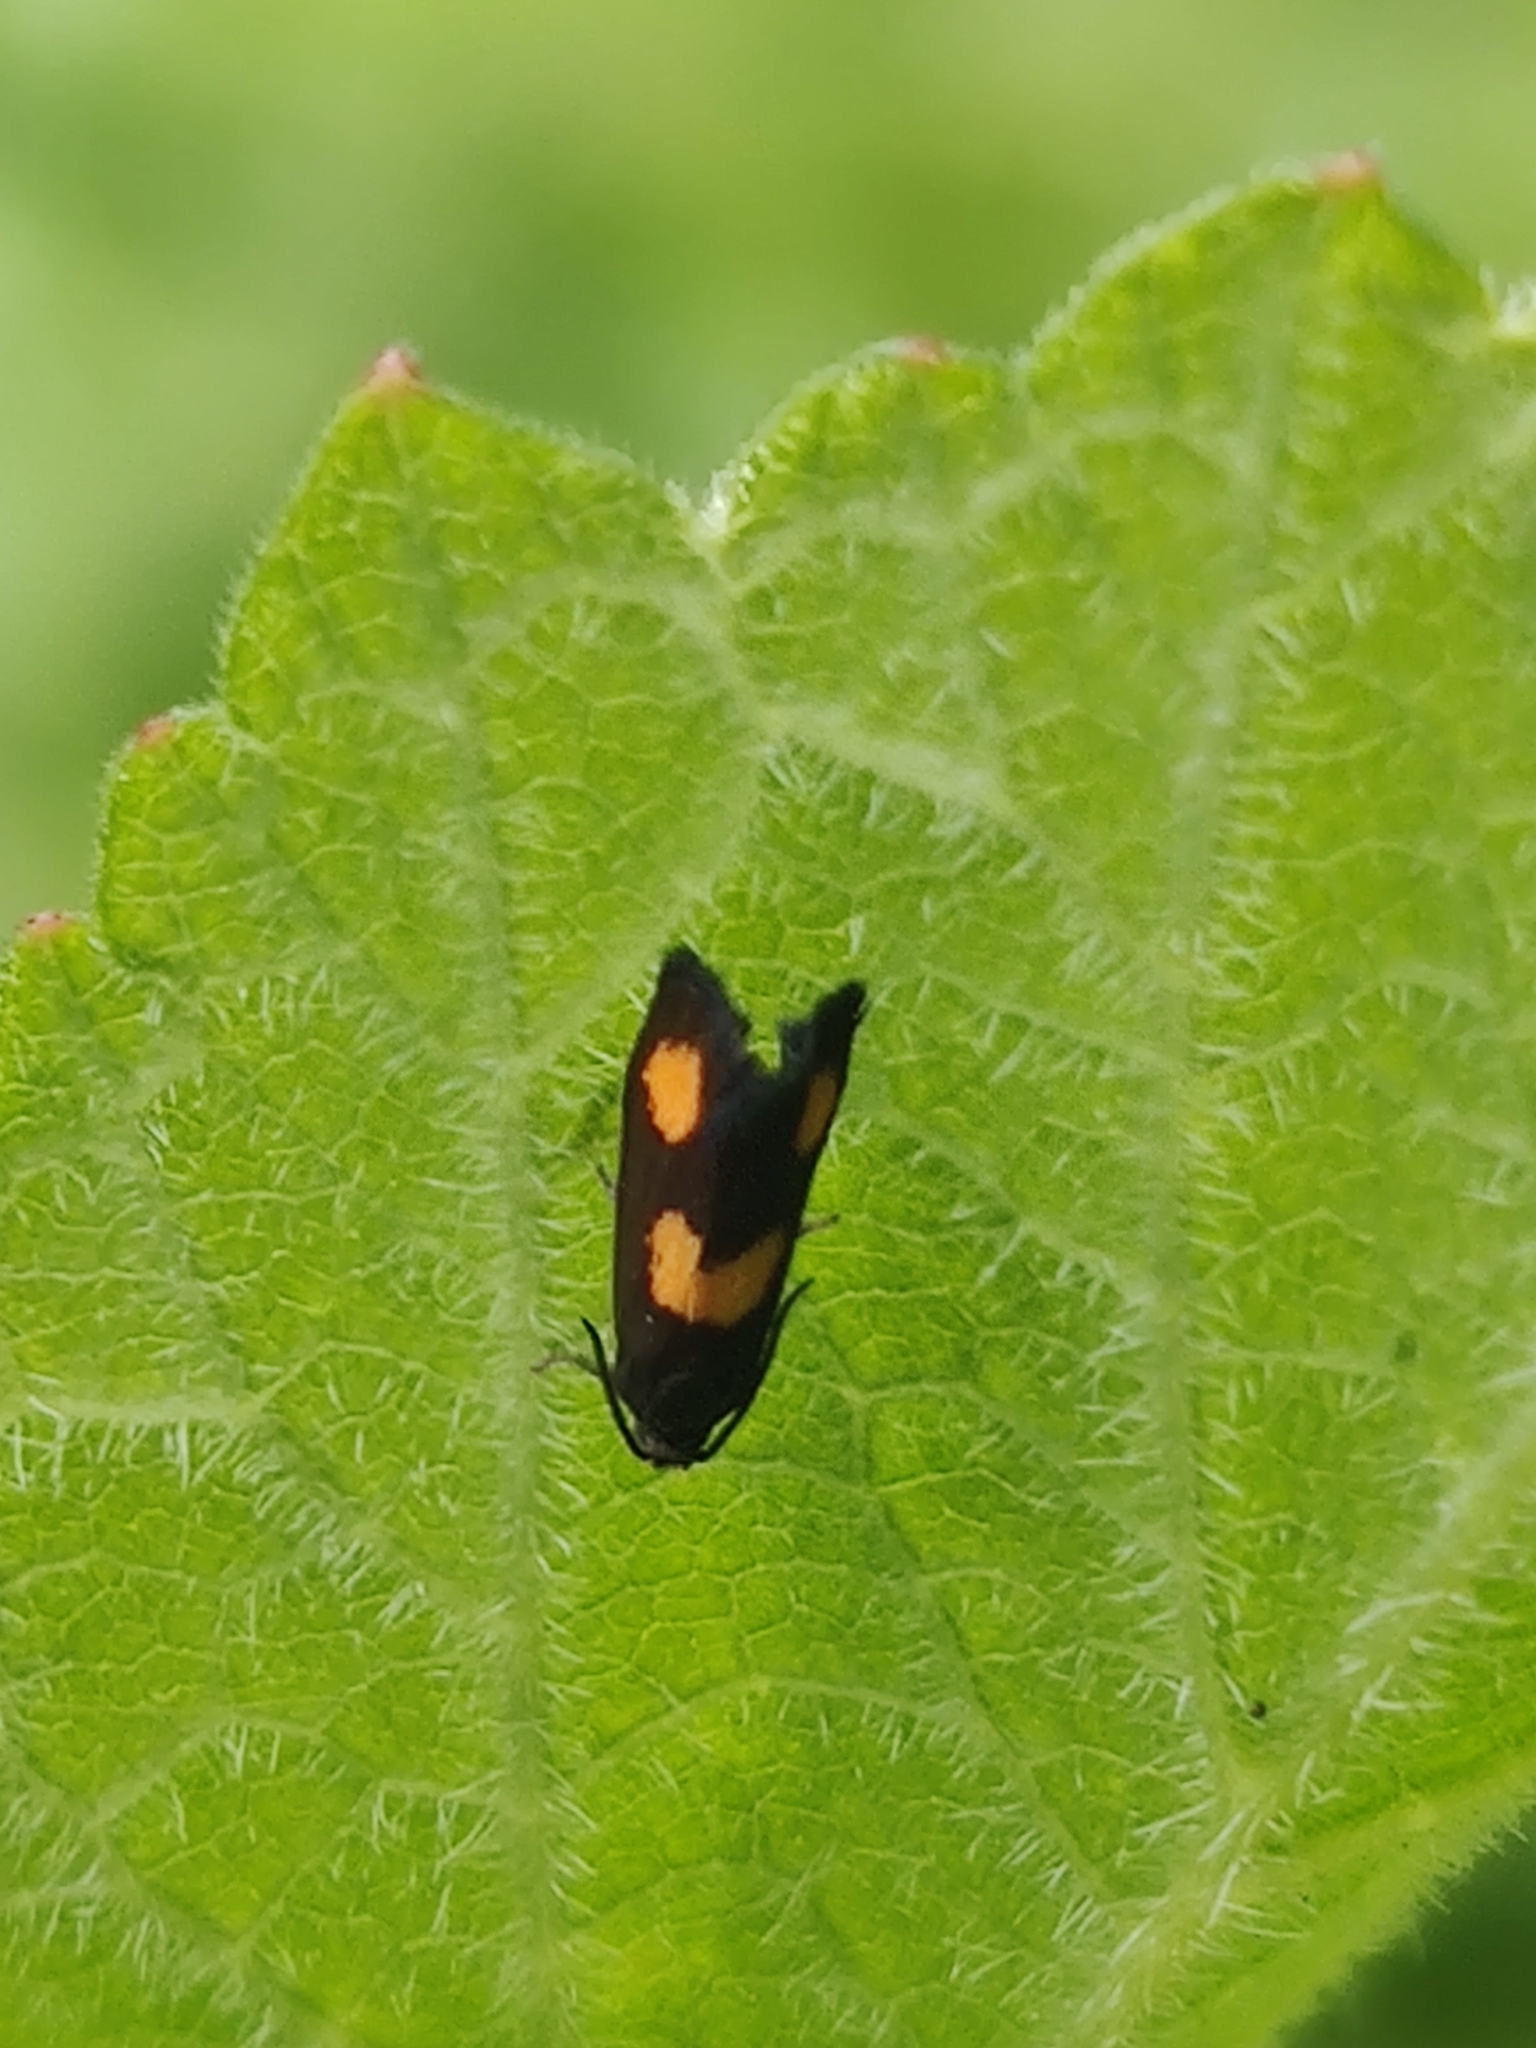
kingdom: Animalia
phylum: Arthropoda
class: Insecta
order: Lepidoptera
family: Tortricidae
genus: Pammene
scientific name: Pammene aurana
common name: Orange-spot piercer
